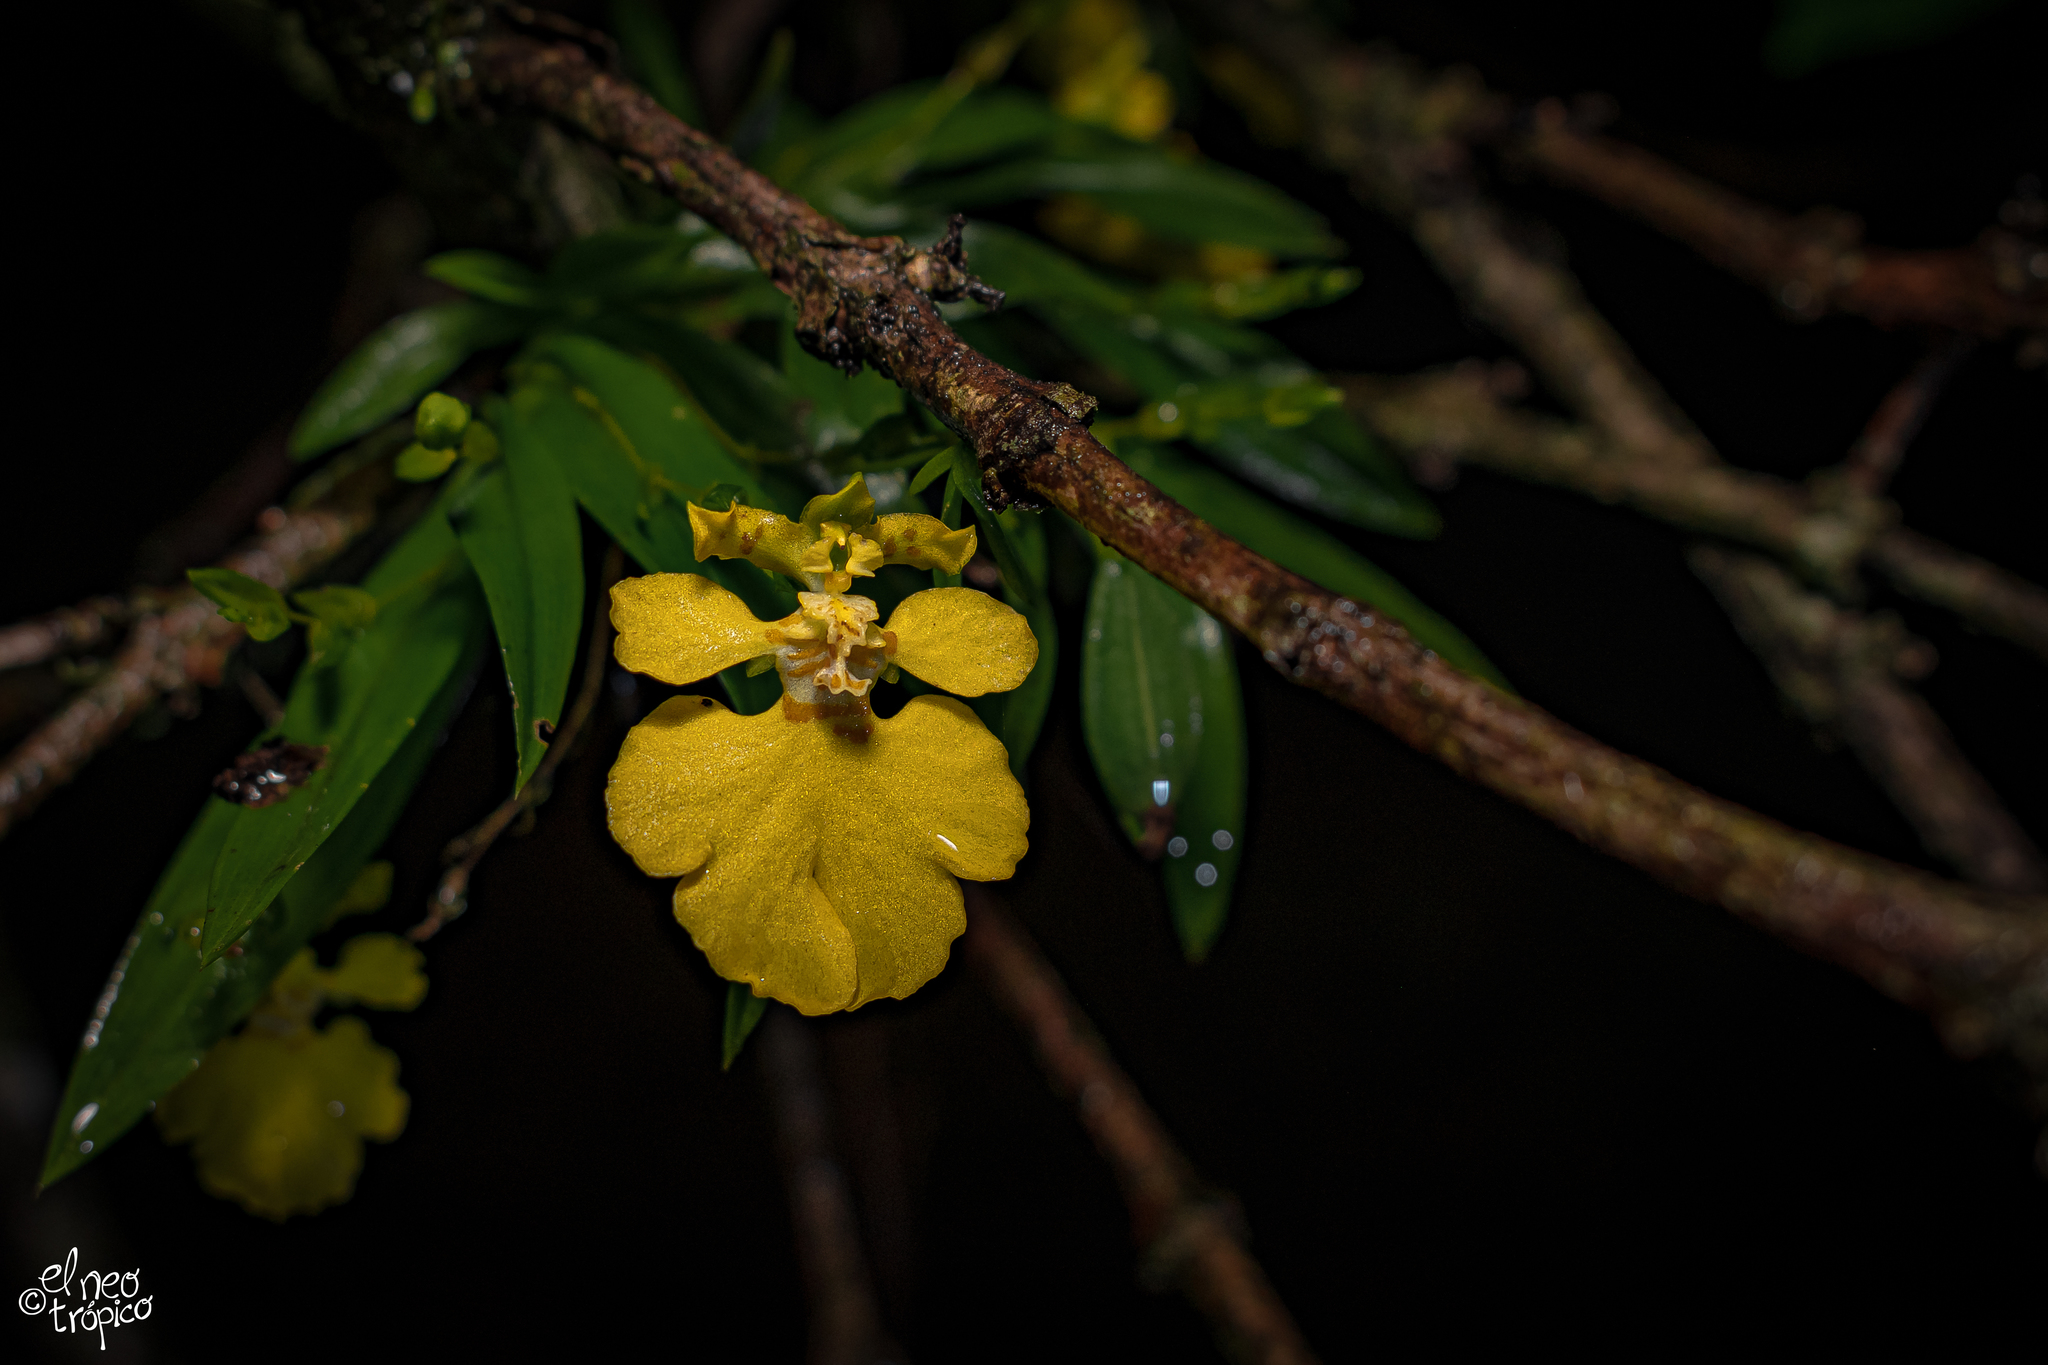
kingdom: Plantae
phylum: Tracheophyta
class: Liliopsida
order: Asparagales
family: Orchidaceae
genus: Erycina
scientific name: Erycina crista-galli
